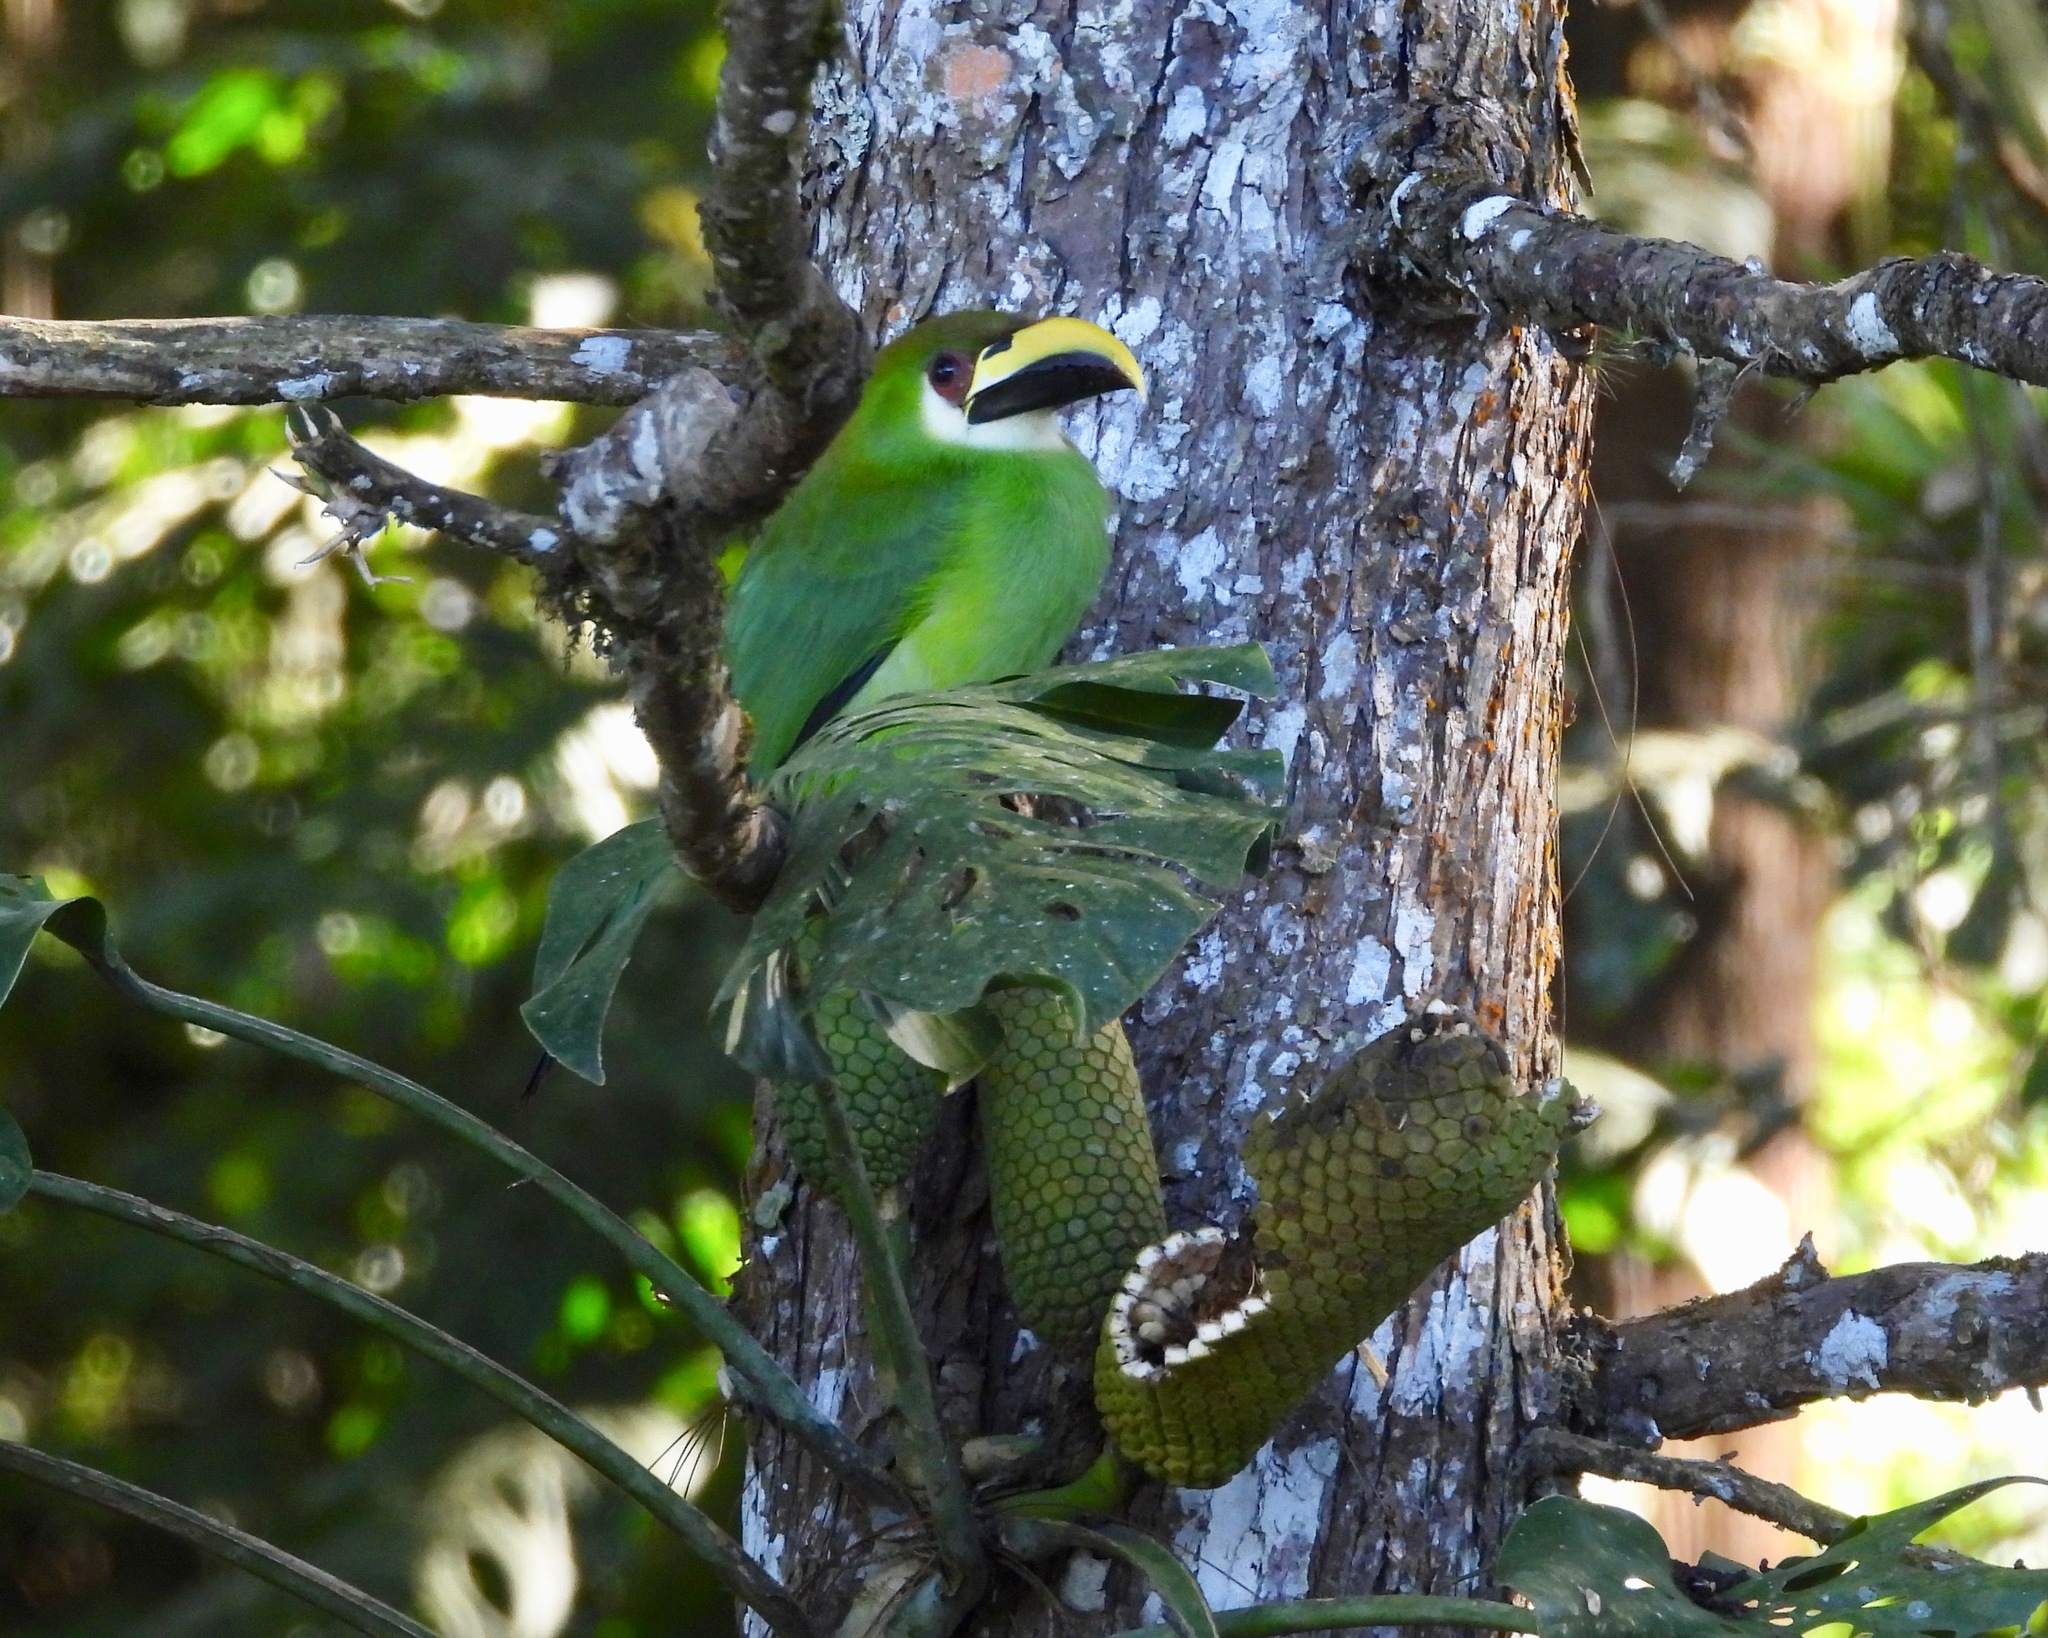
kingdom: Animalia
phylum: Chordata
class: Aves
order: Piciformes
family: Ramphastidae
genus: Aulacorhynchus
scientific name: Aulacorhynchus prasinus
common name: Emerald toucanet
